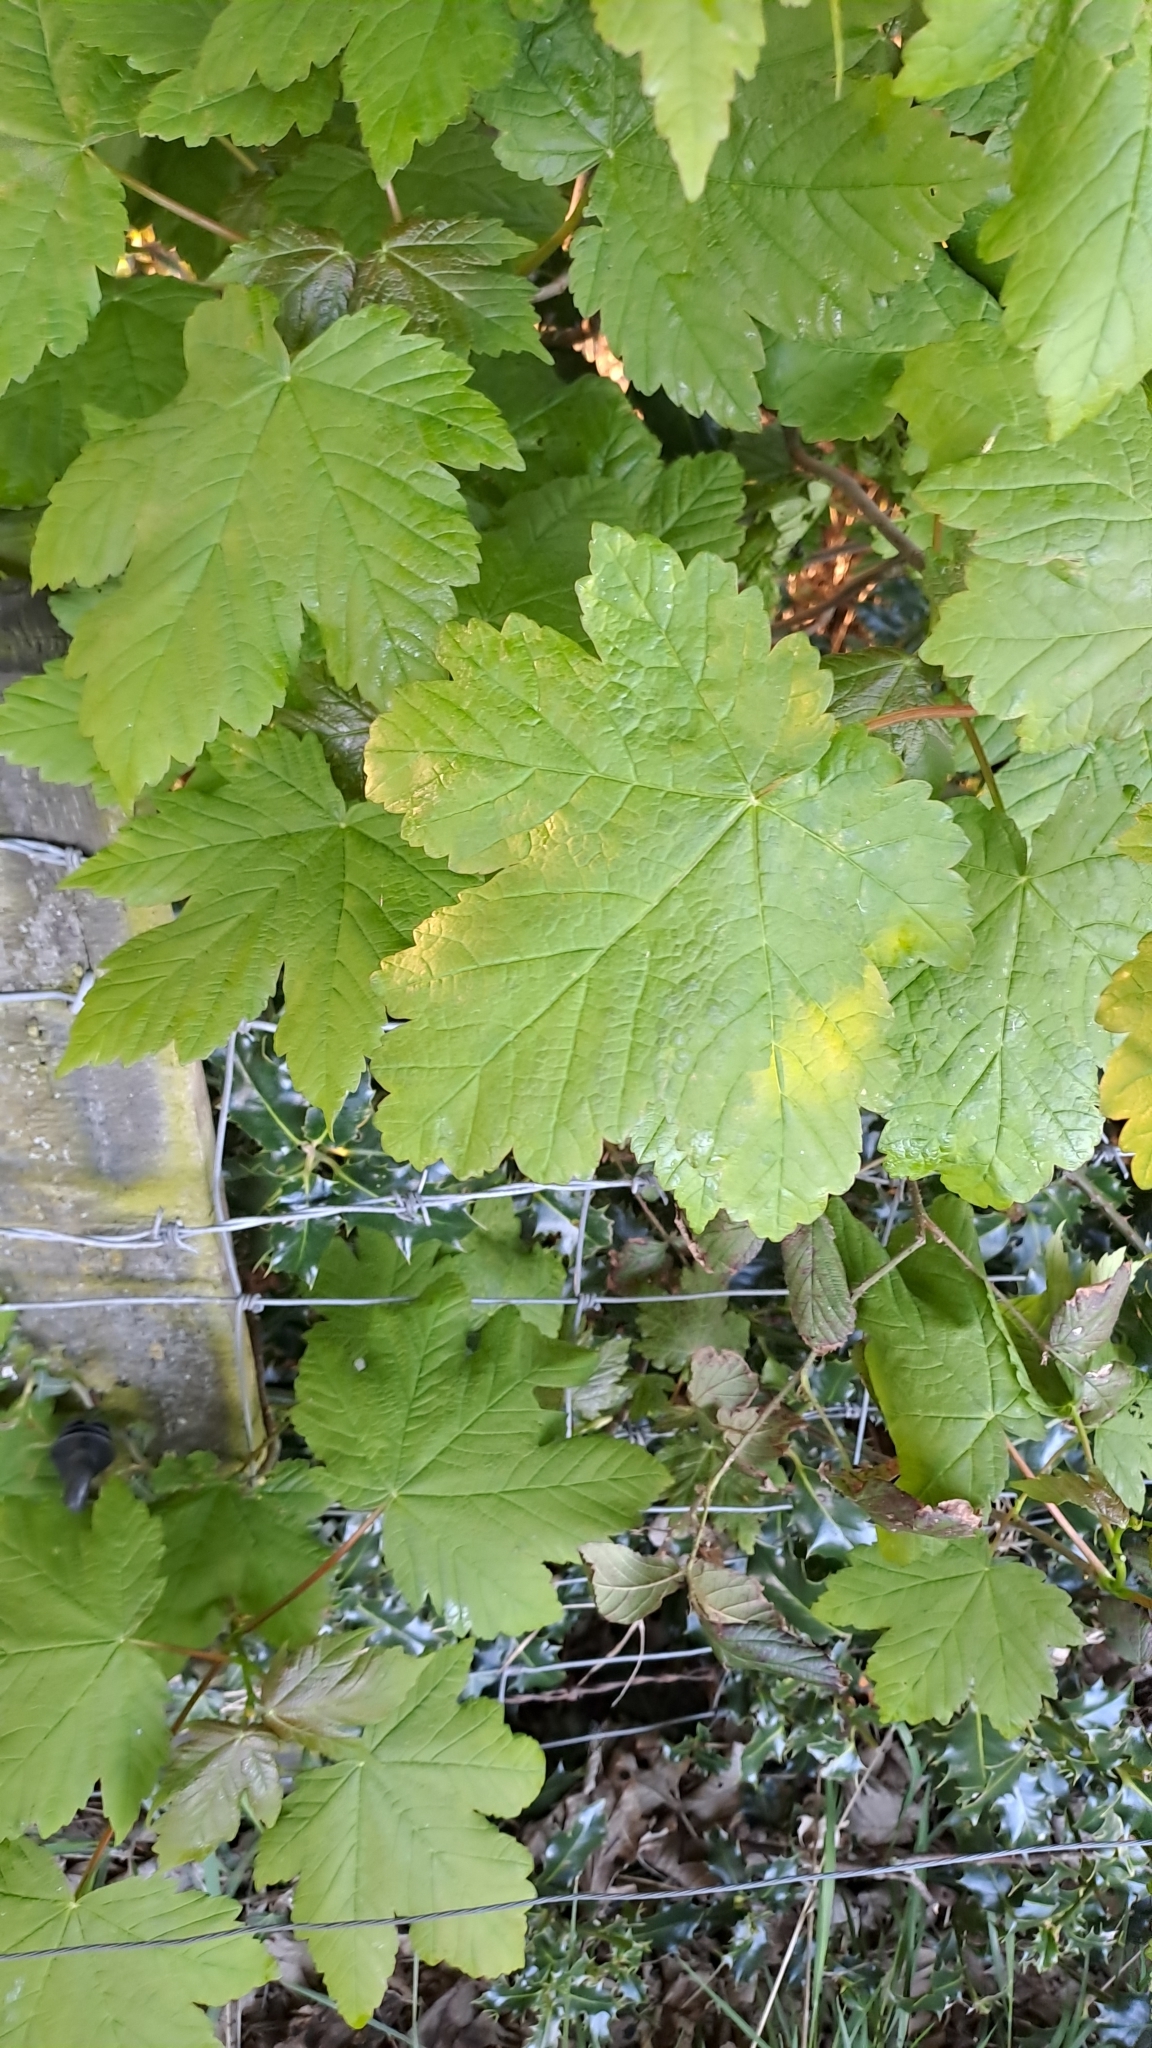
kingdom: Plantae
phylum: Tracheophyta
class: Magnoliopsida
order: Sapindales
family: Sapindaceae
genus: Acer
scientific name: Acer pseudoplatanus
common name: Sycamore
